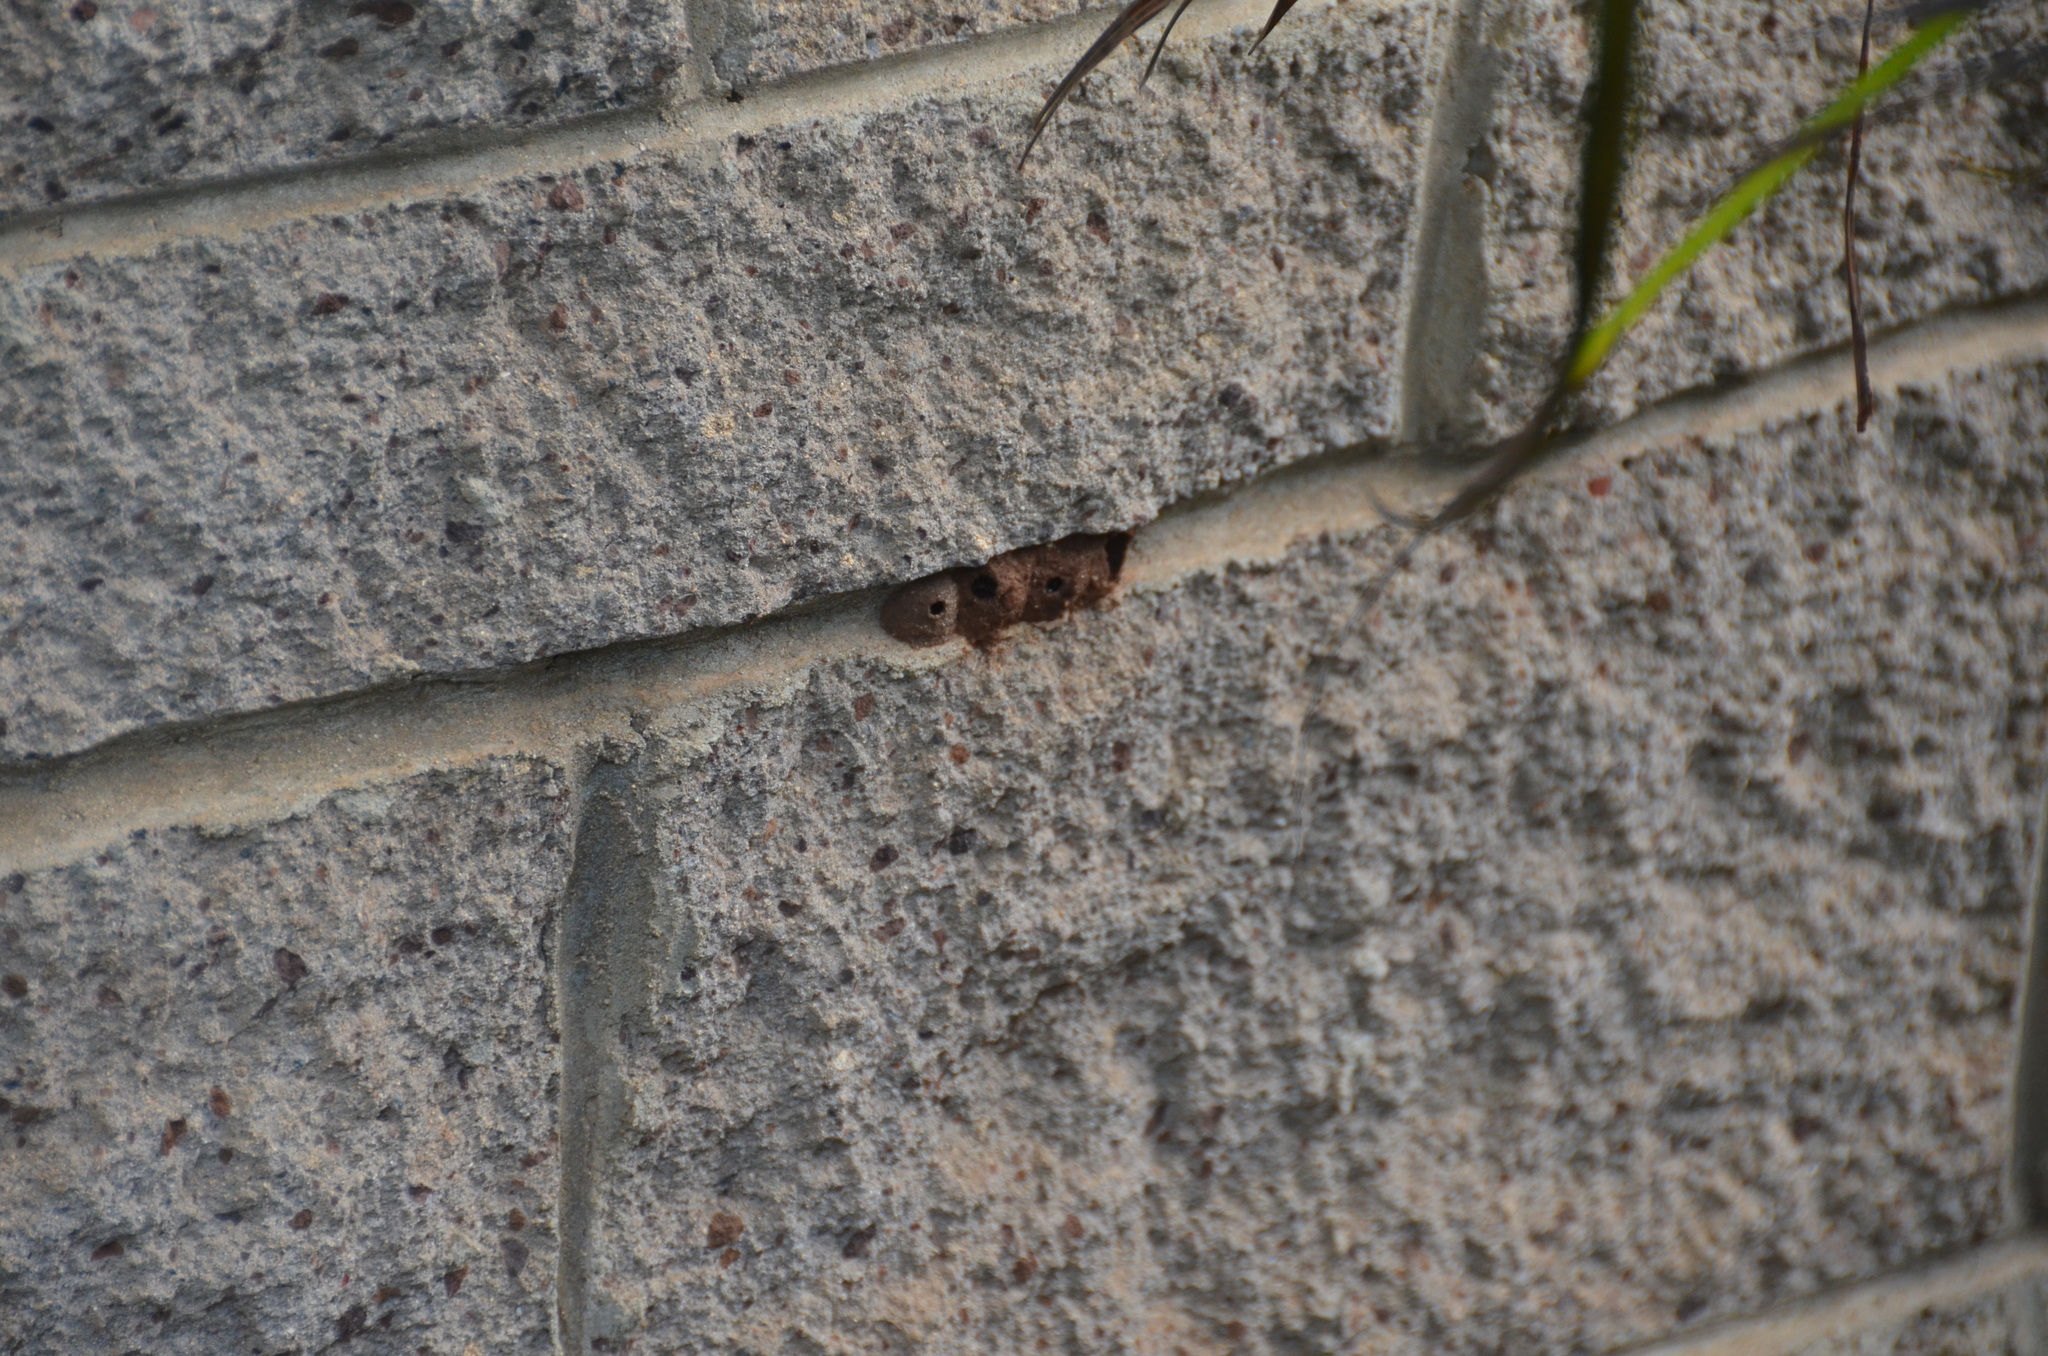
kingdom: Animalia
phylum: Arthropoda
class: Insecta
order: Hymenoptera
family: Eumenidae
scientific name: Eumenidae
